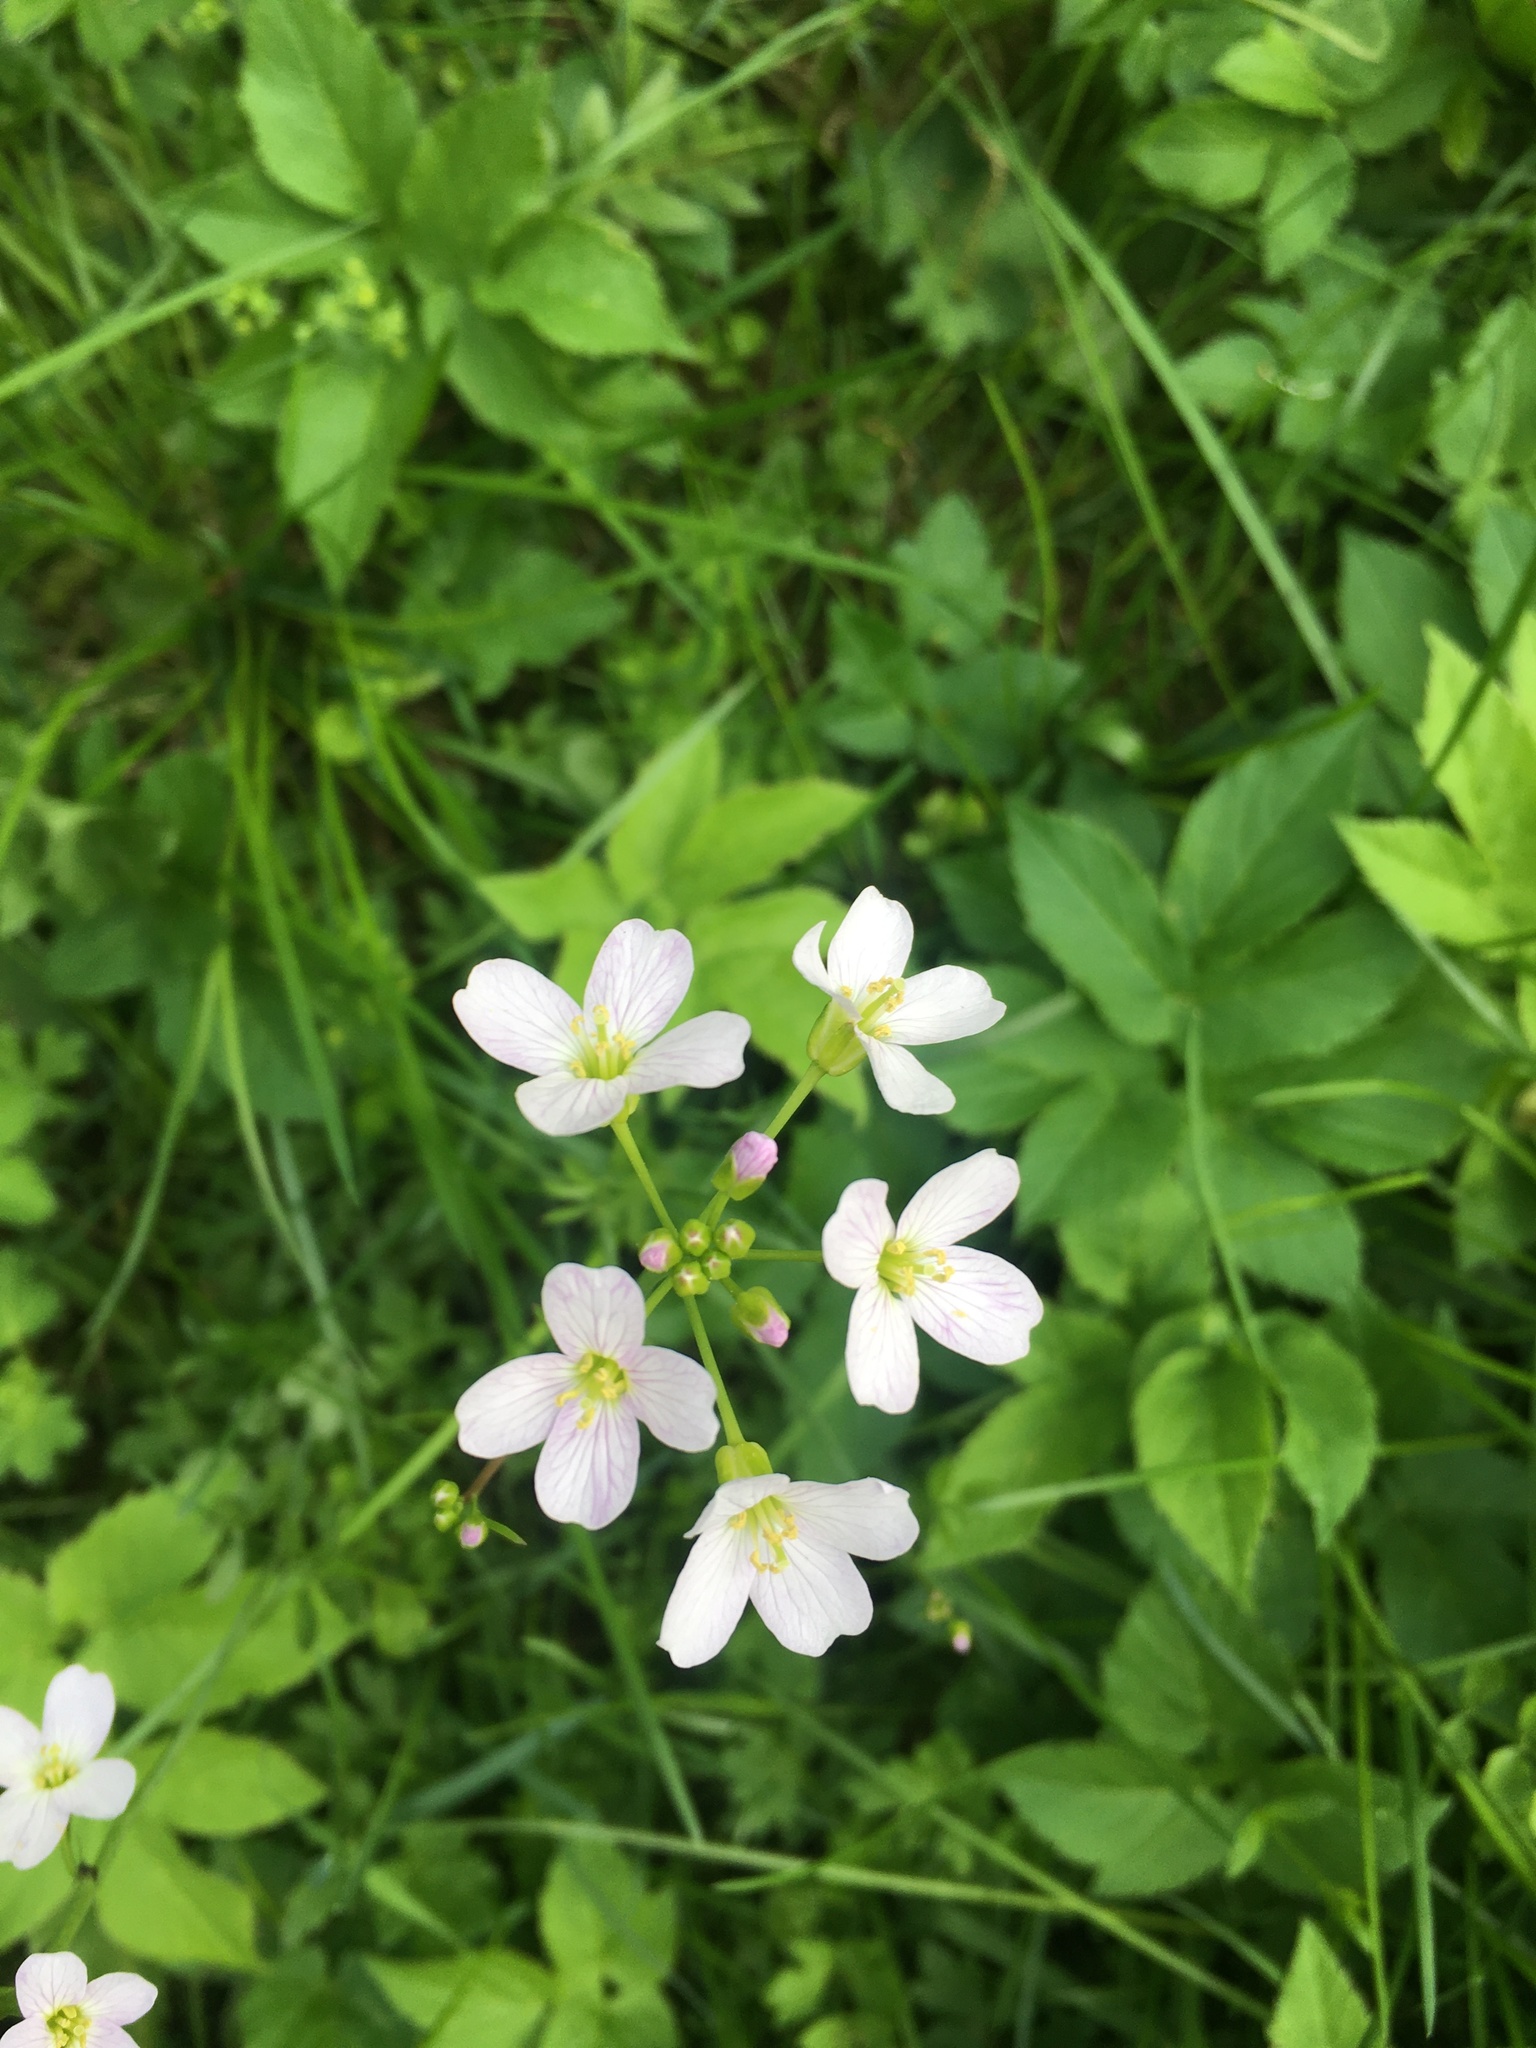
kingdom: Plantae
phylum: Tracheophyta
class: Magnoliopsida
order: Brassicales
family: Brassicaceae
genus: Cardamine
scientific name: Cardamine pratensis
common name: Cuckoo flower
